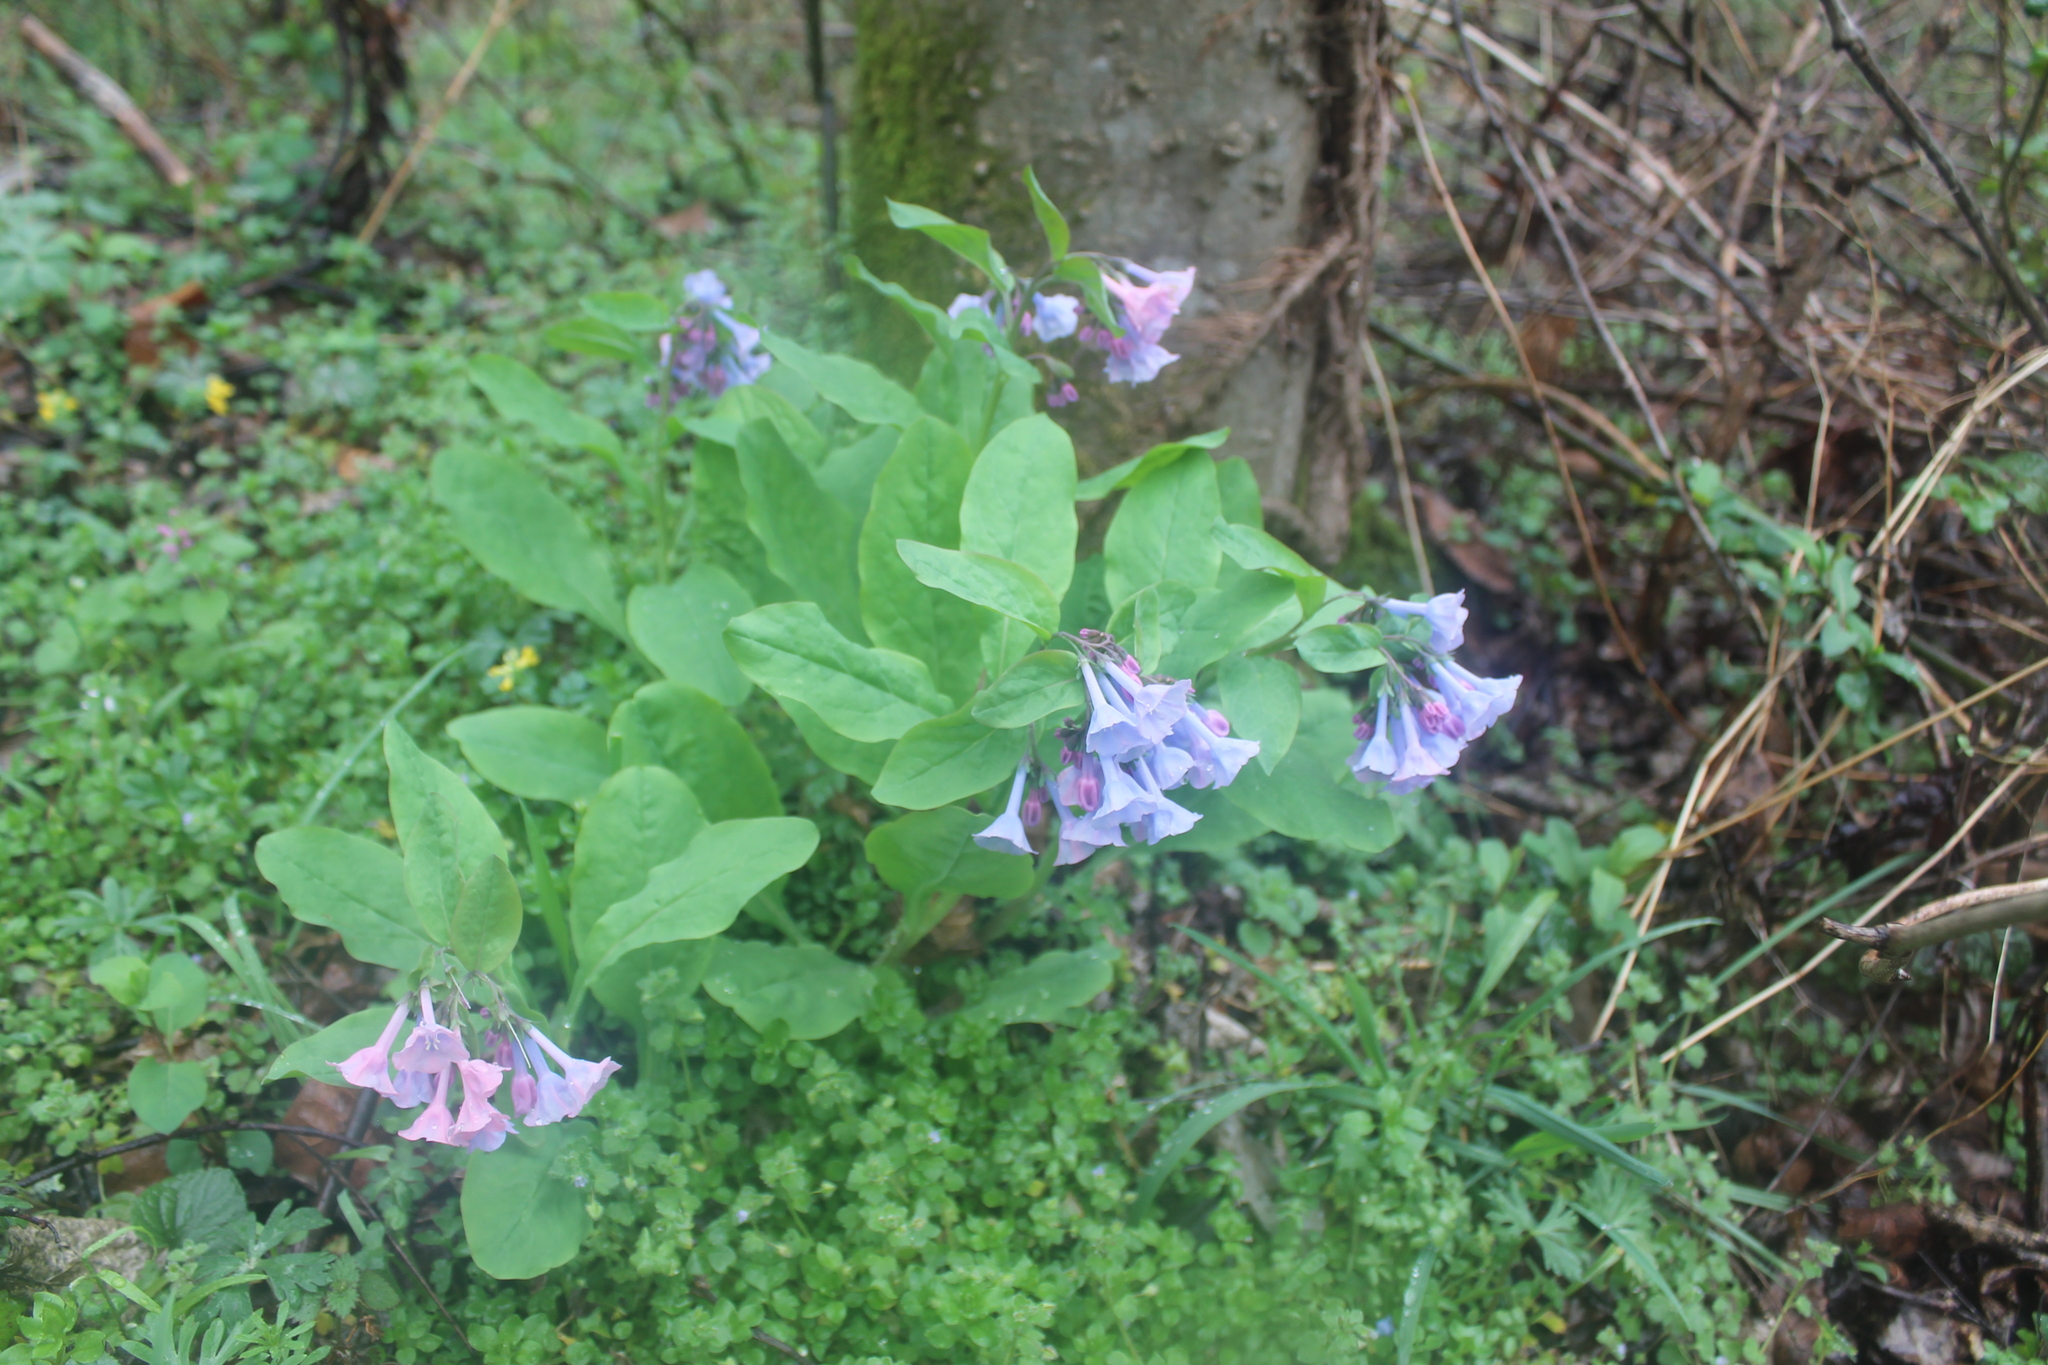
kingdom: Plantae
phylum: Tracheophyta
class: Magnoliopsida
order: Boraginales
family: Boraginaceae
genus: Mertensia
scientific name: Mertensia virginica
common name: Virginia bluebells
